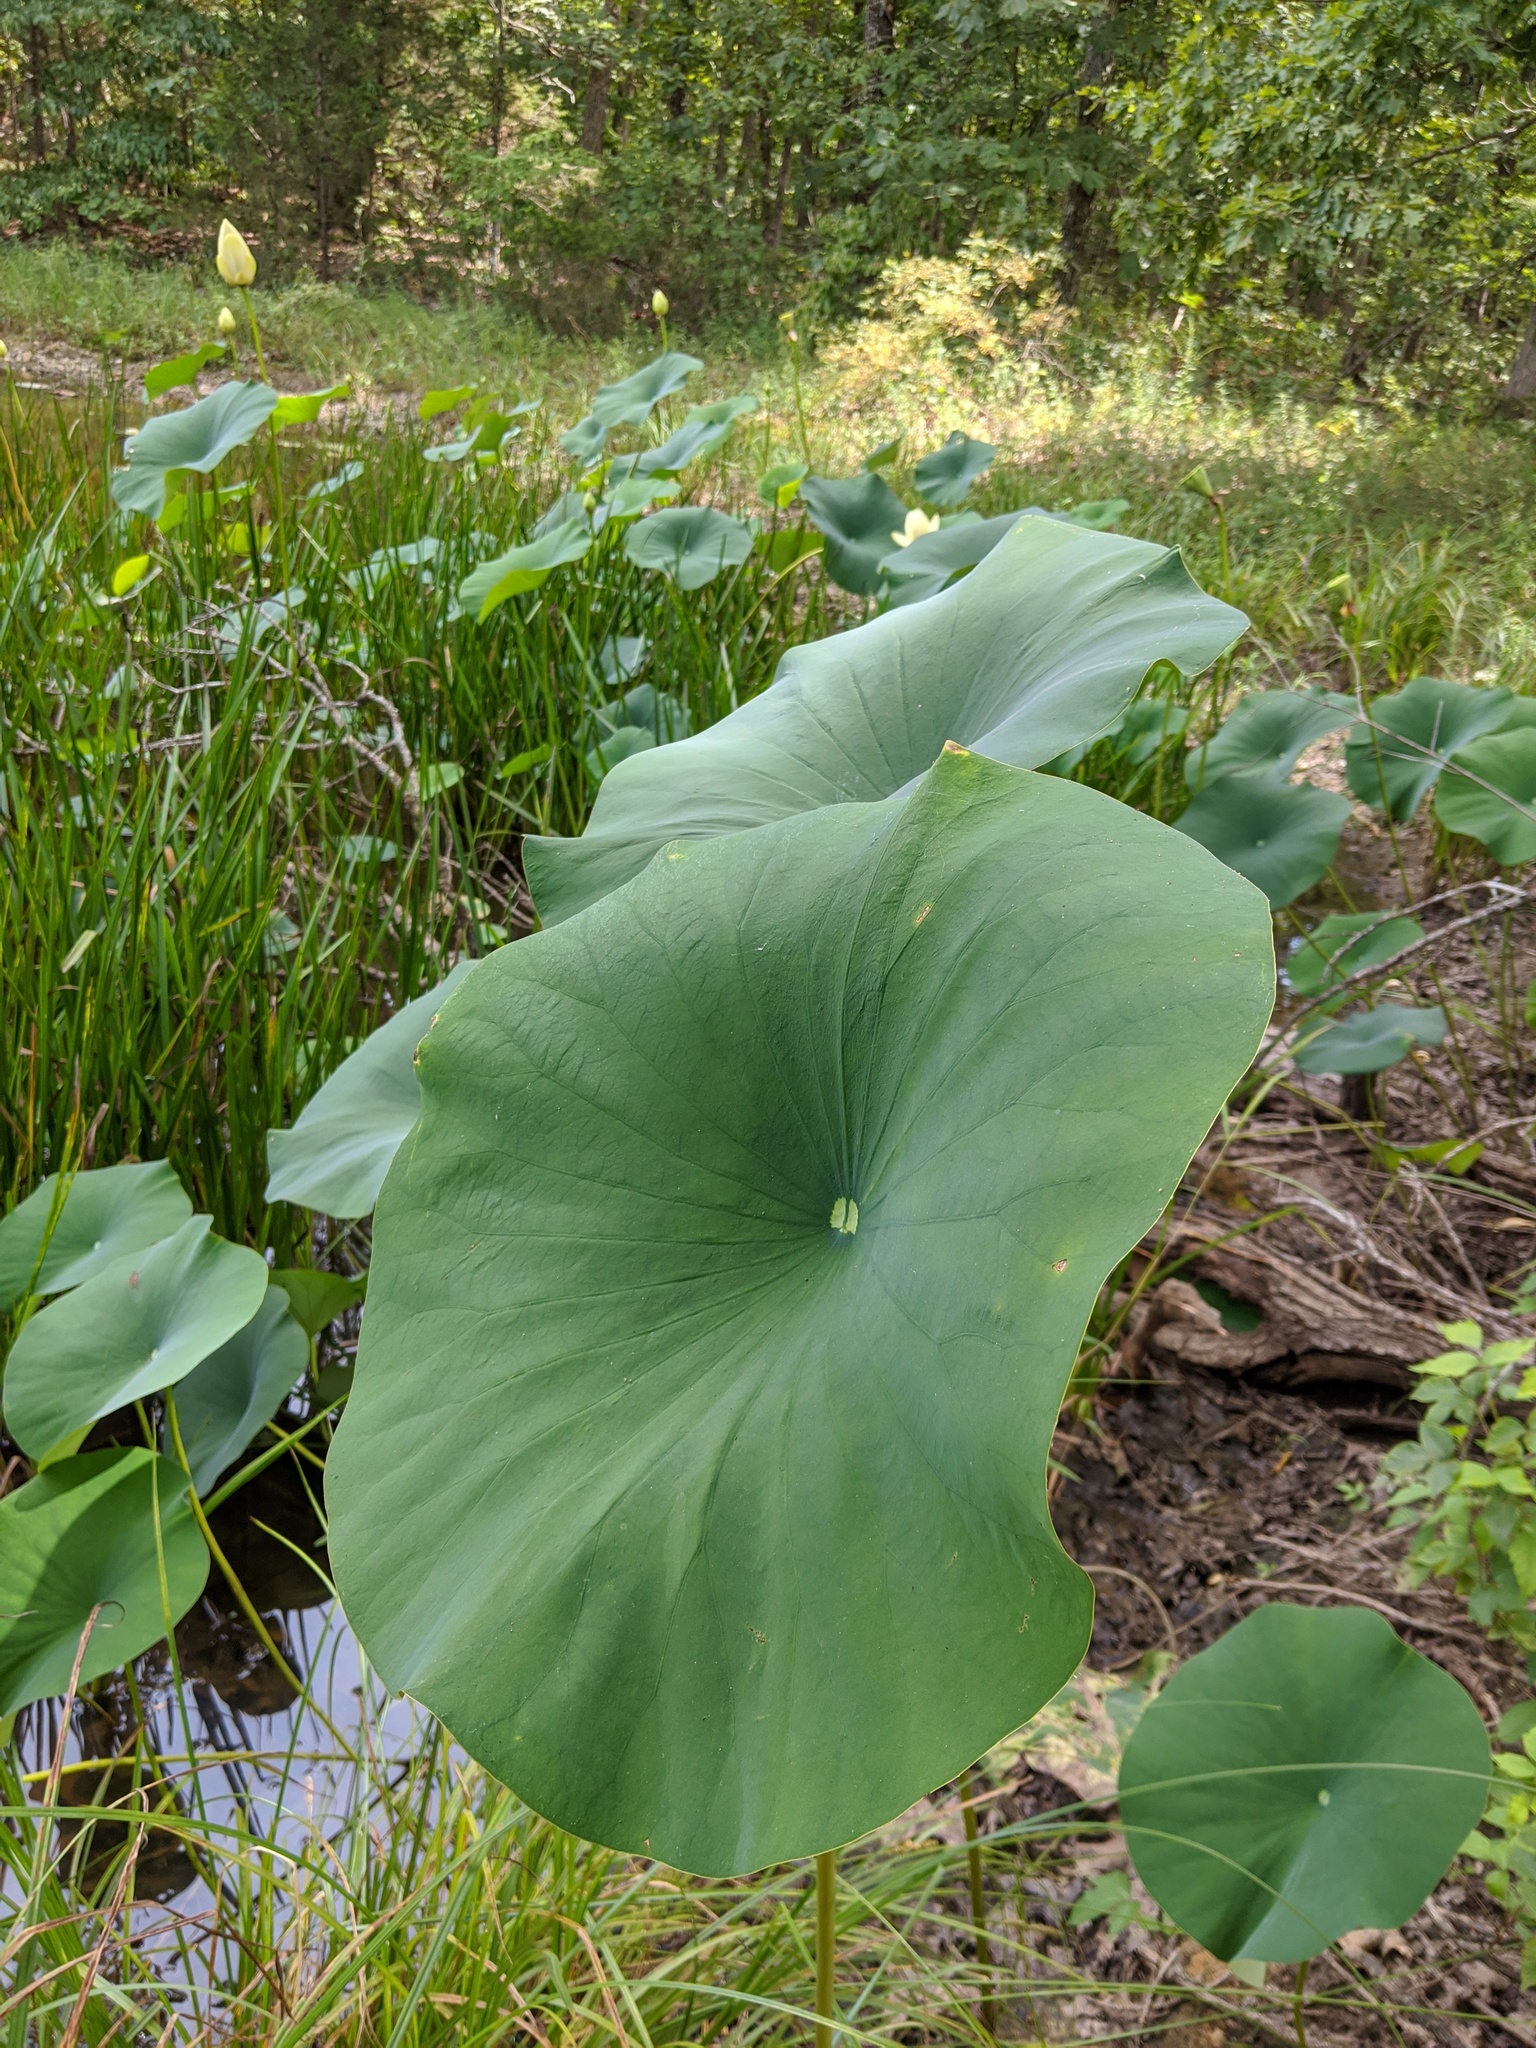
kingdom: Plantae
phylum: Tracheophyta
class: Magnoliopsida
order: Proteales
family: Nelumbonaceae
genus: Nelumbo
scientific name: Nelumbo lutea
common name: American lotus
